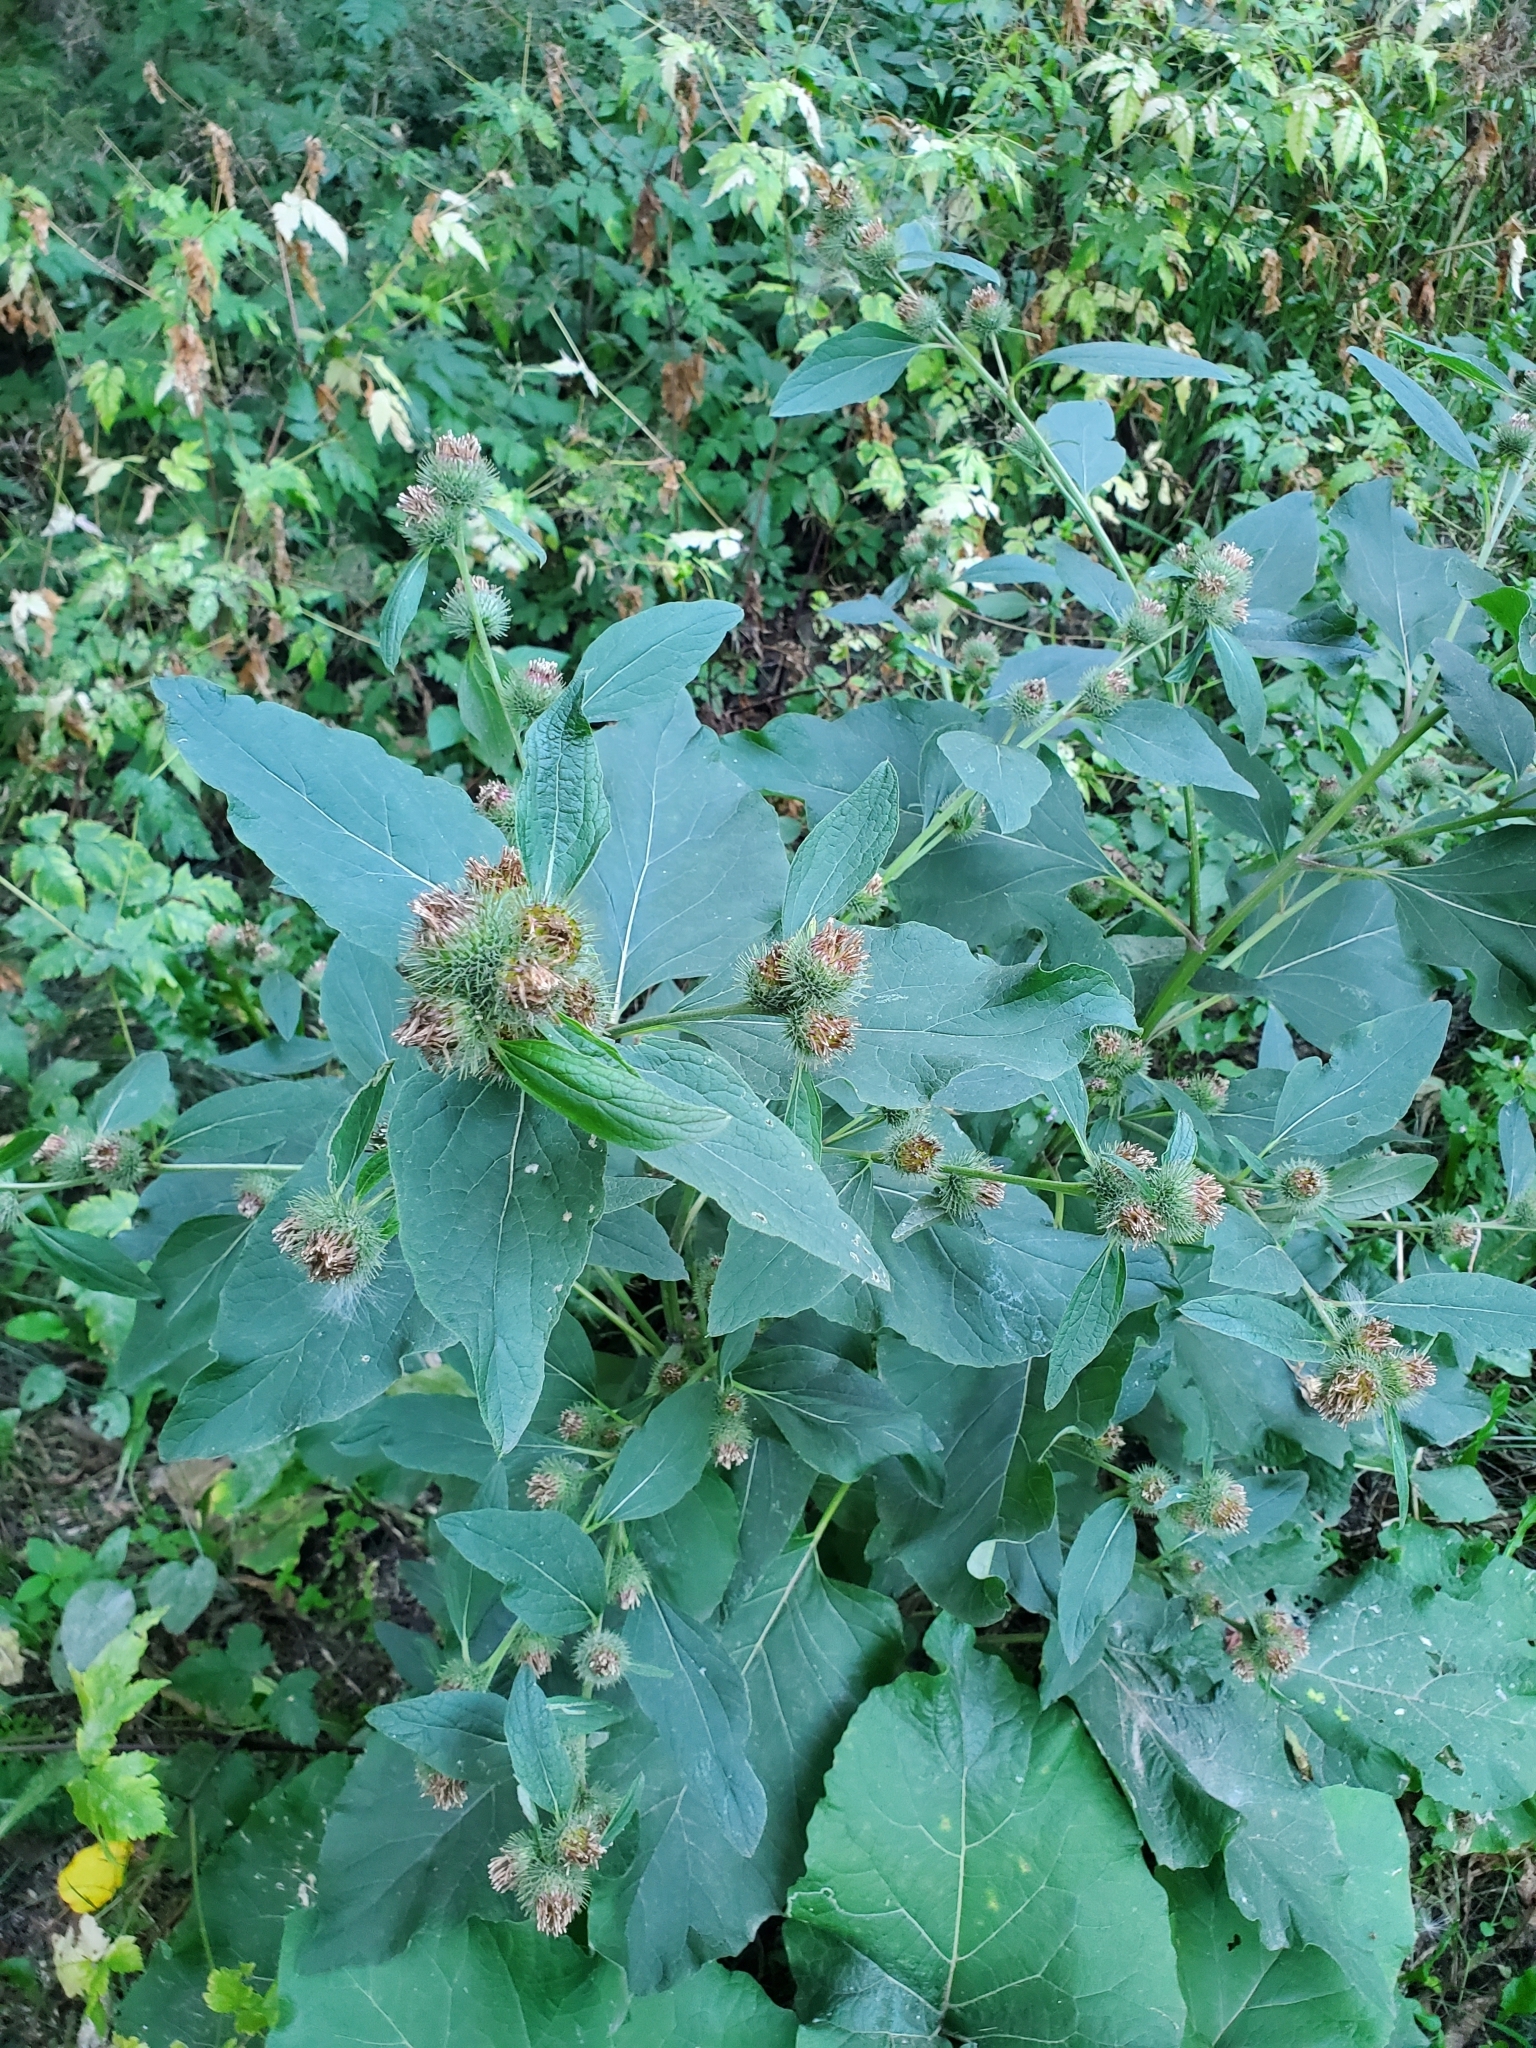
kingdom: Plantae
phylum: Tracheophyta
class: Magnoliopsida
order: Asterales
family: Asteraceae
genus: Arctium
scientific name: Arctium minus
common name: Lesser burdock
